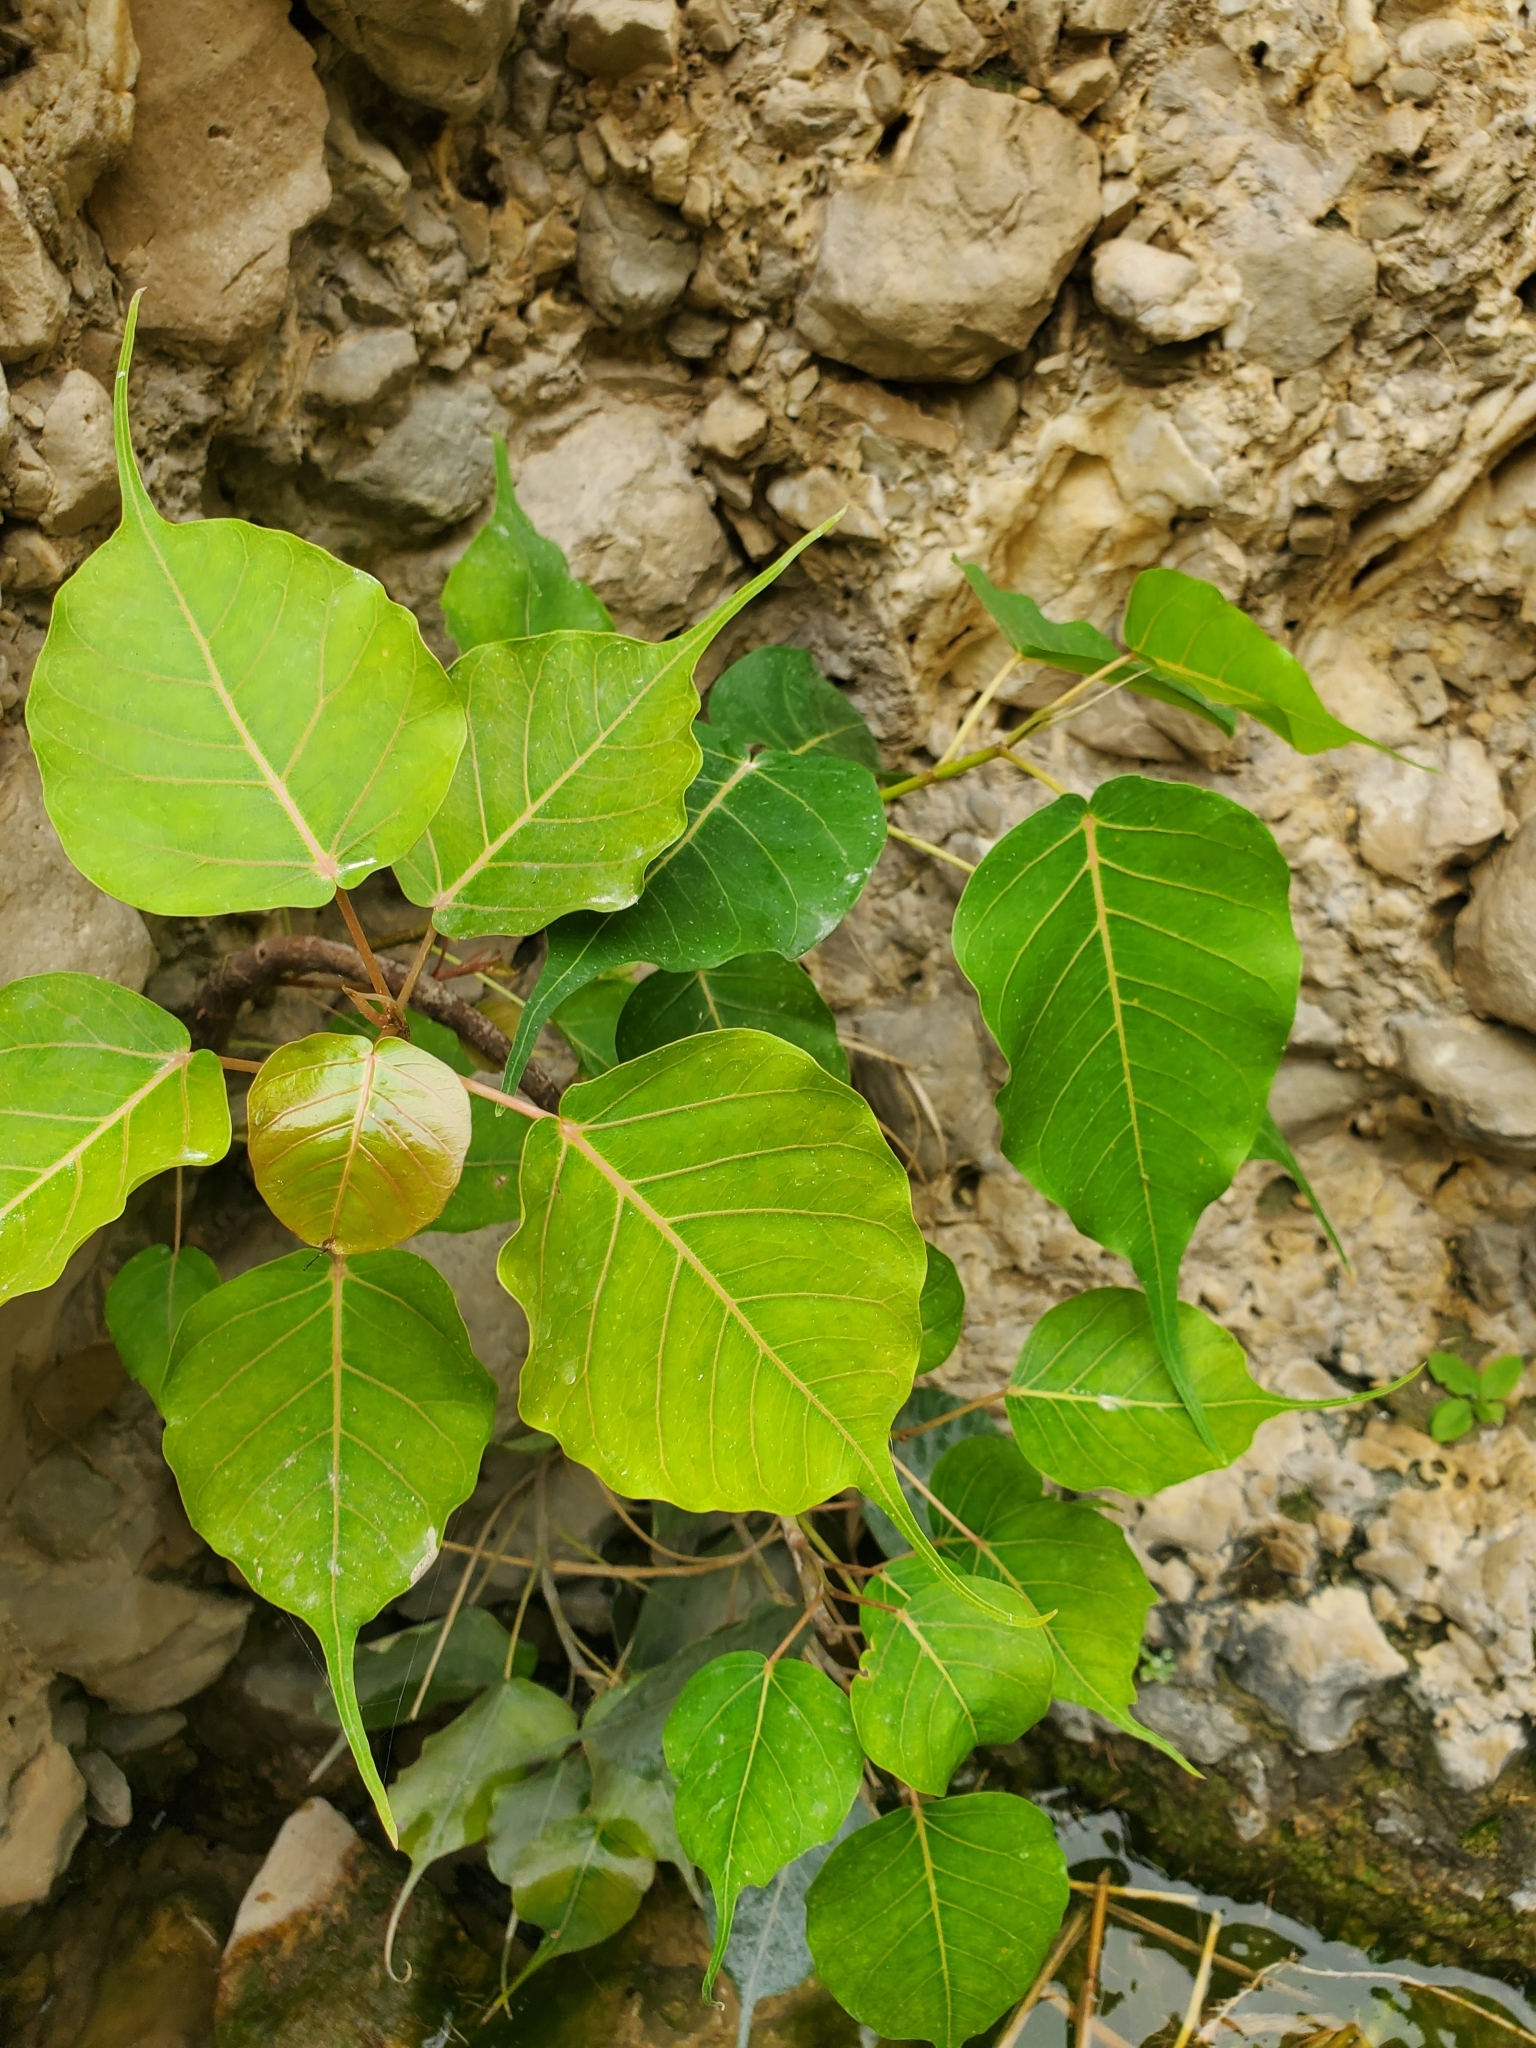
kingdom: Plantae
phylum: Tracheophyta
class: Magnoliopsida
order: Rosales
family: Moraceae
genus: Ficus
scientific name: Ficus religiosa
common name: Bodhi tree
